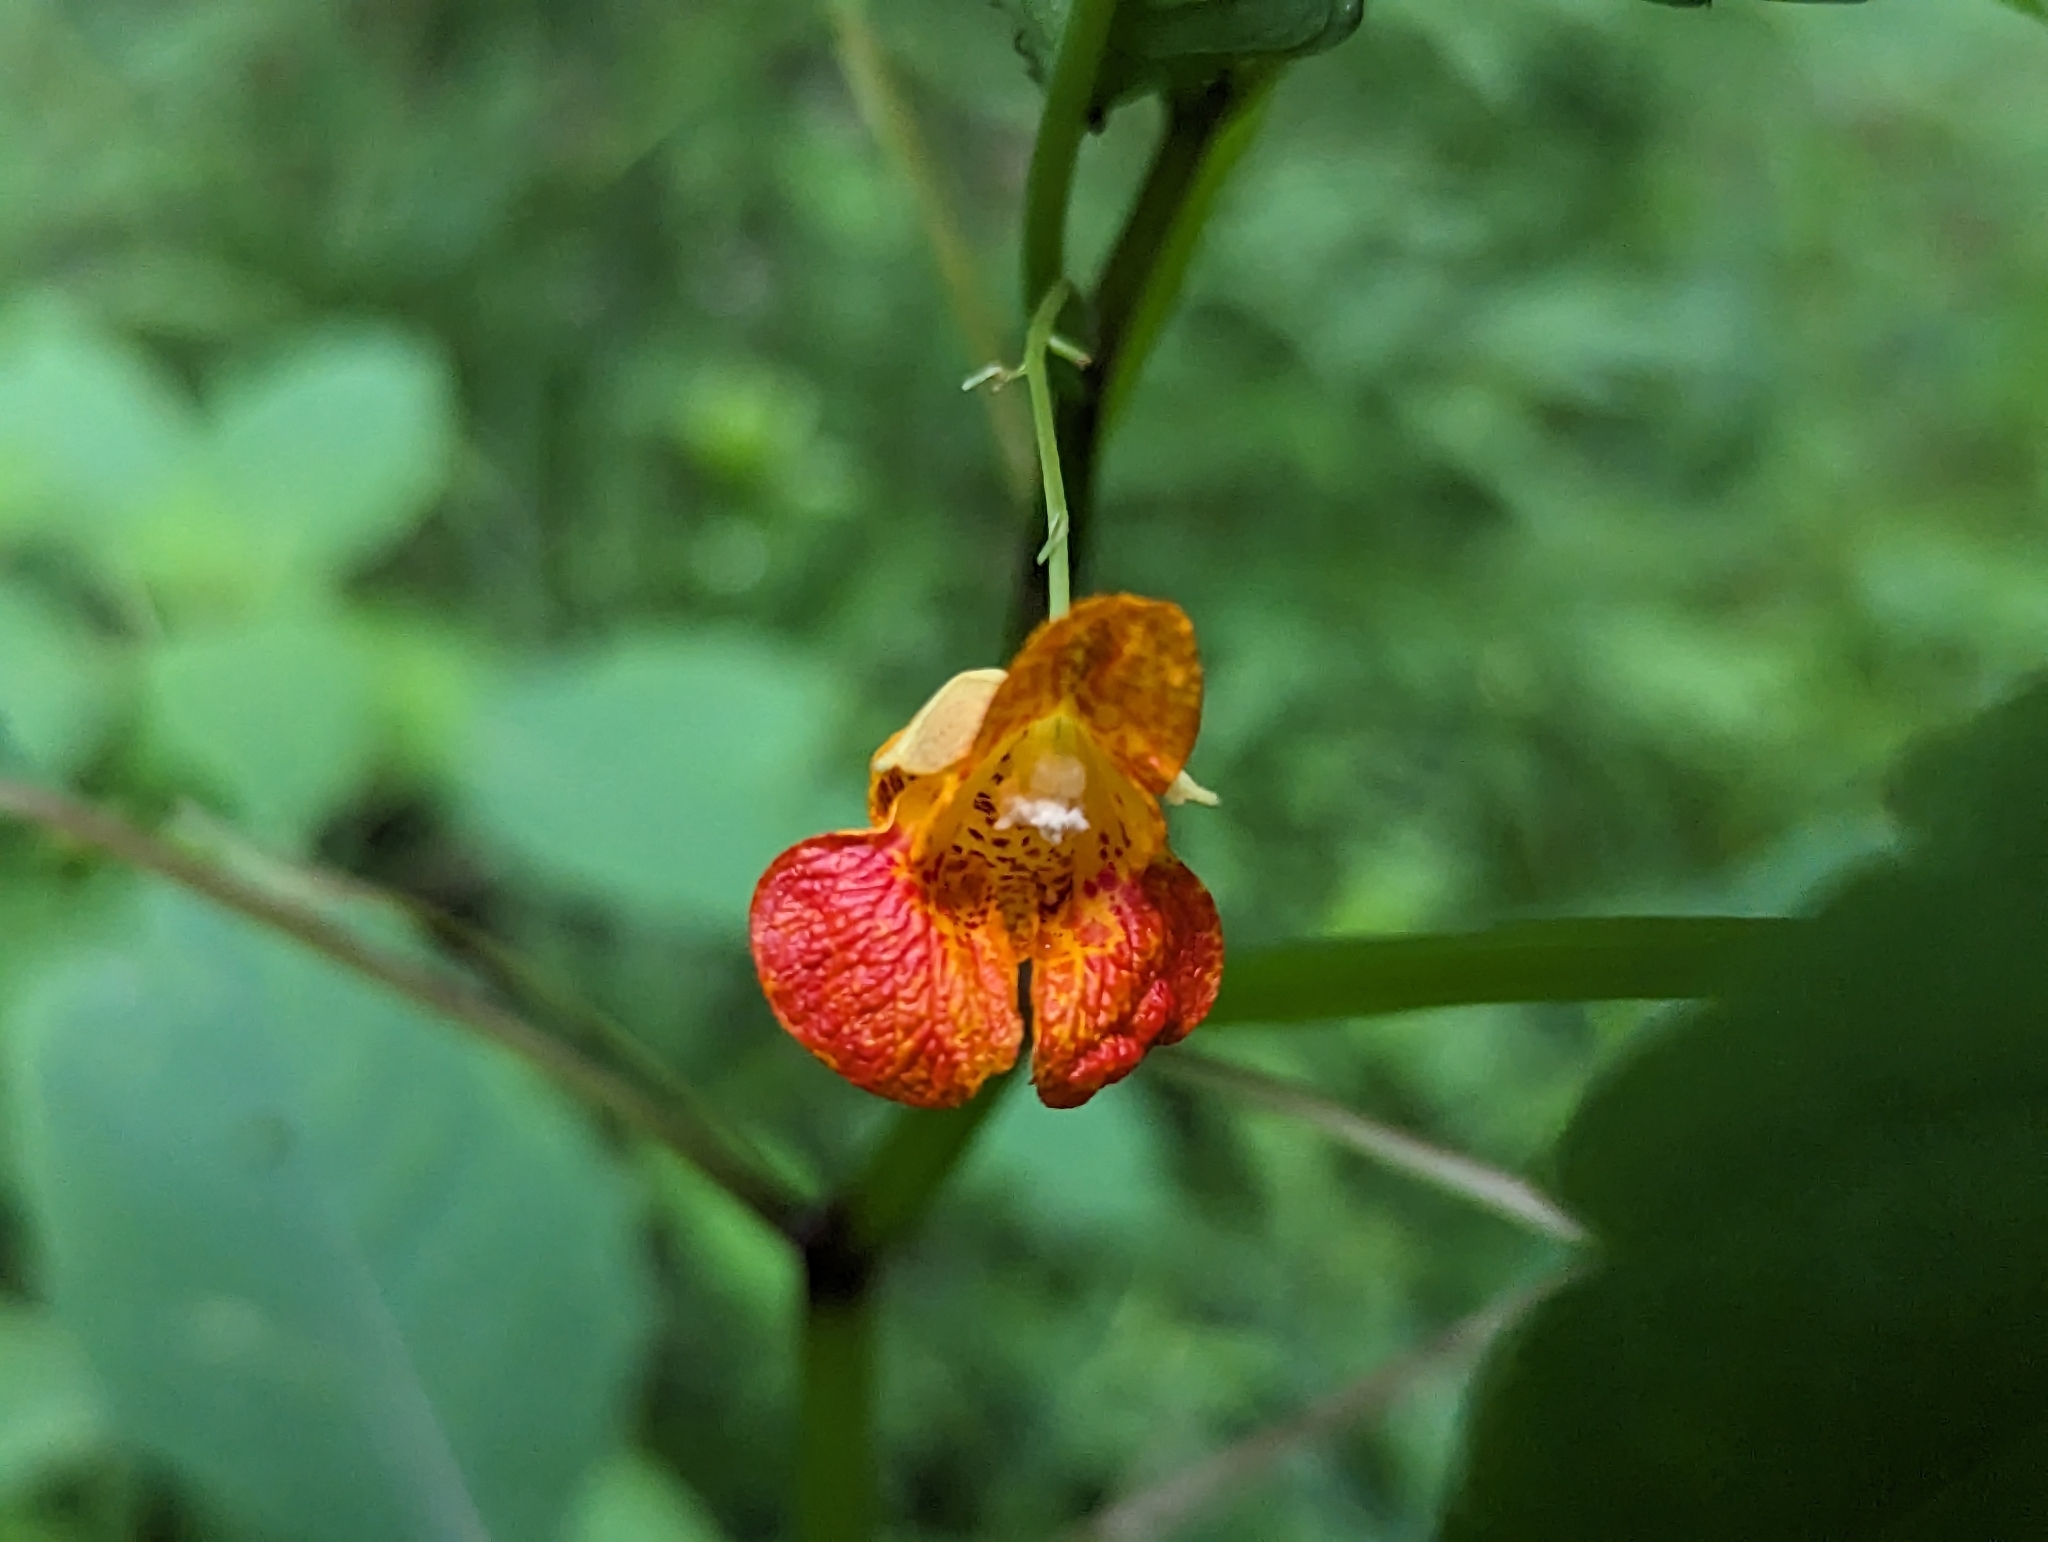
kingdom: Plantae
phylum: Tracheophyta
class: Magnoliopsida
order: Ericales
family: Balsaminaceae
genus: Impatiens
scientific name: Impatiens capensis
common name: Orange balsam
